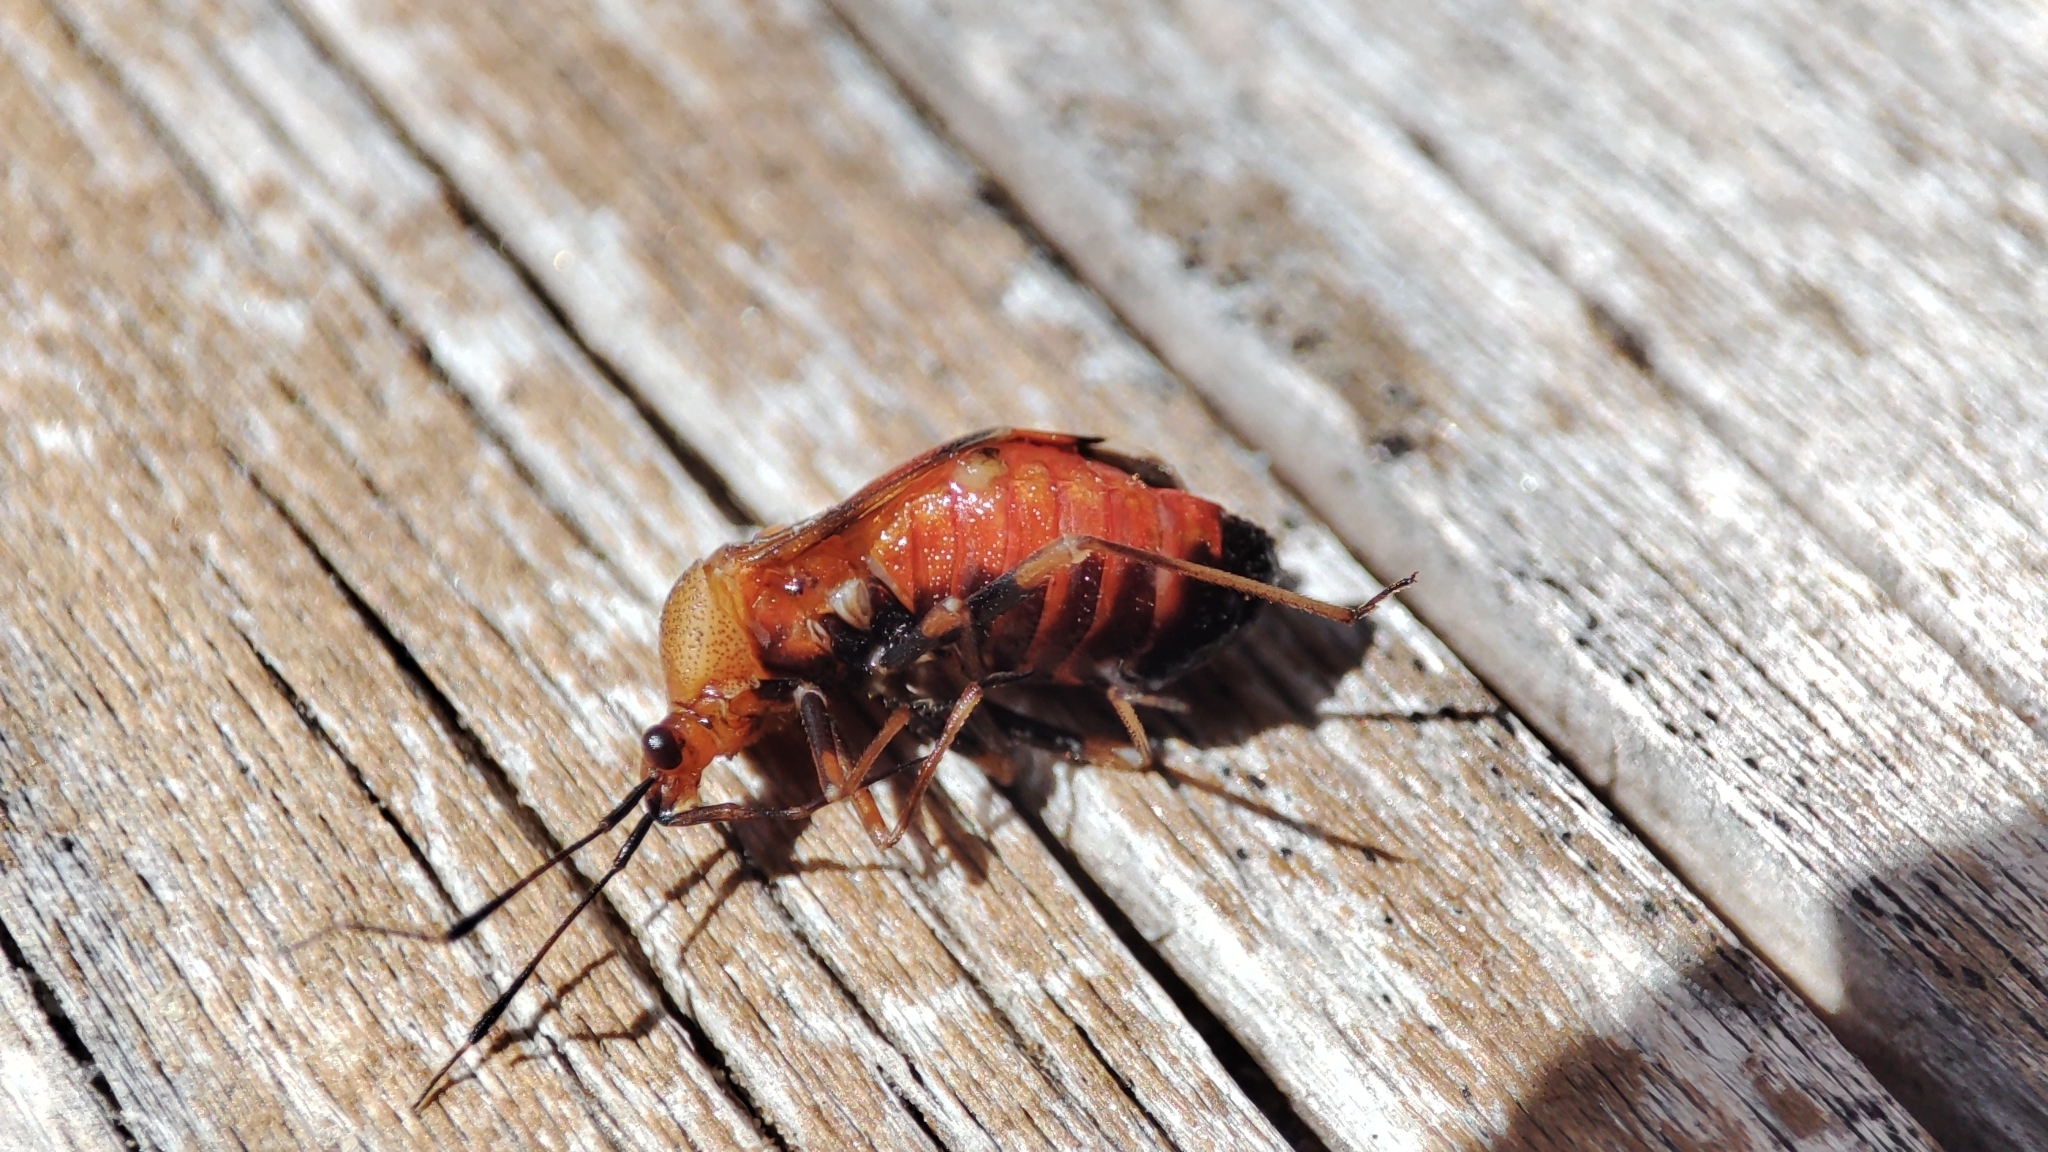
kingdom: Animalia
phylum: Arthropoda
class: Insecta
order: Hemiptera
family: Miridae
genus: Deraeocoris
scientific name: Deraeocoris ruber
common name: Plant bug
